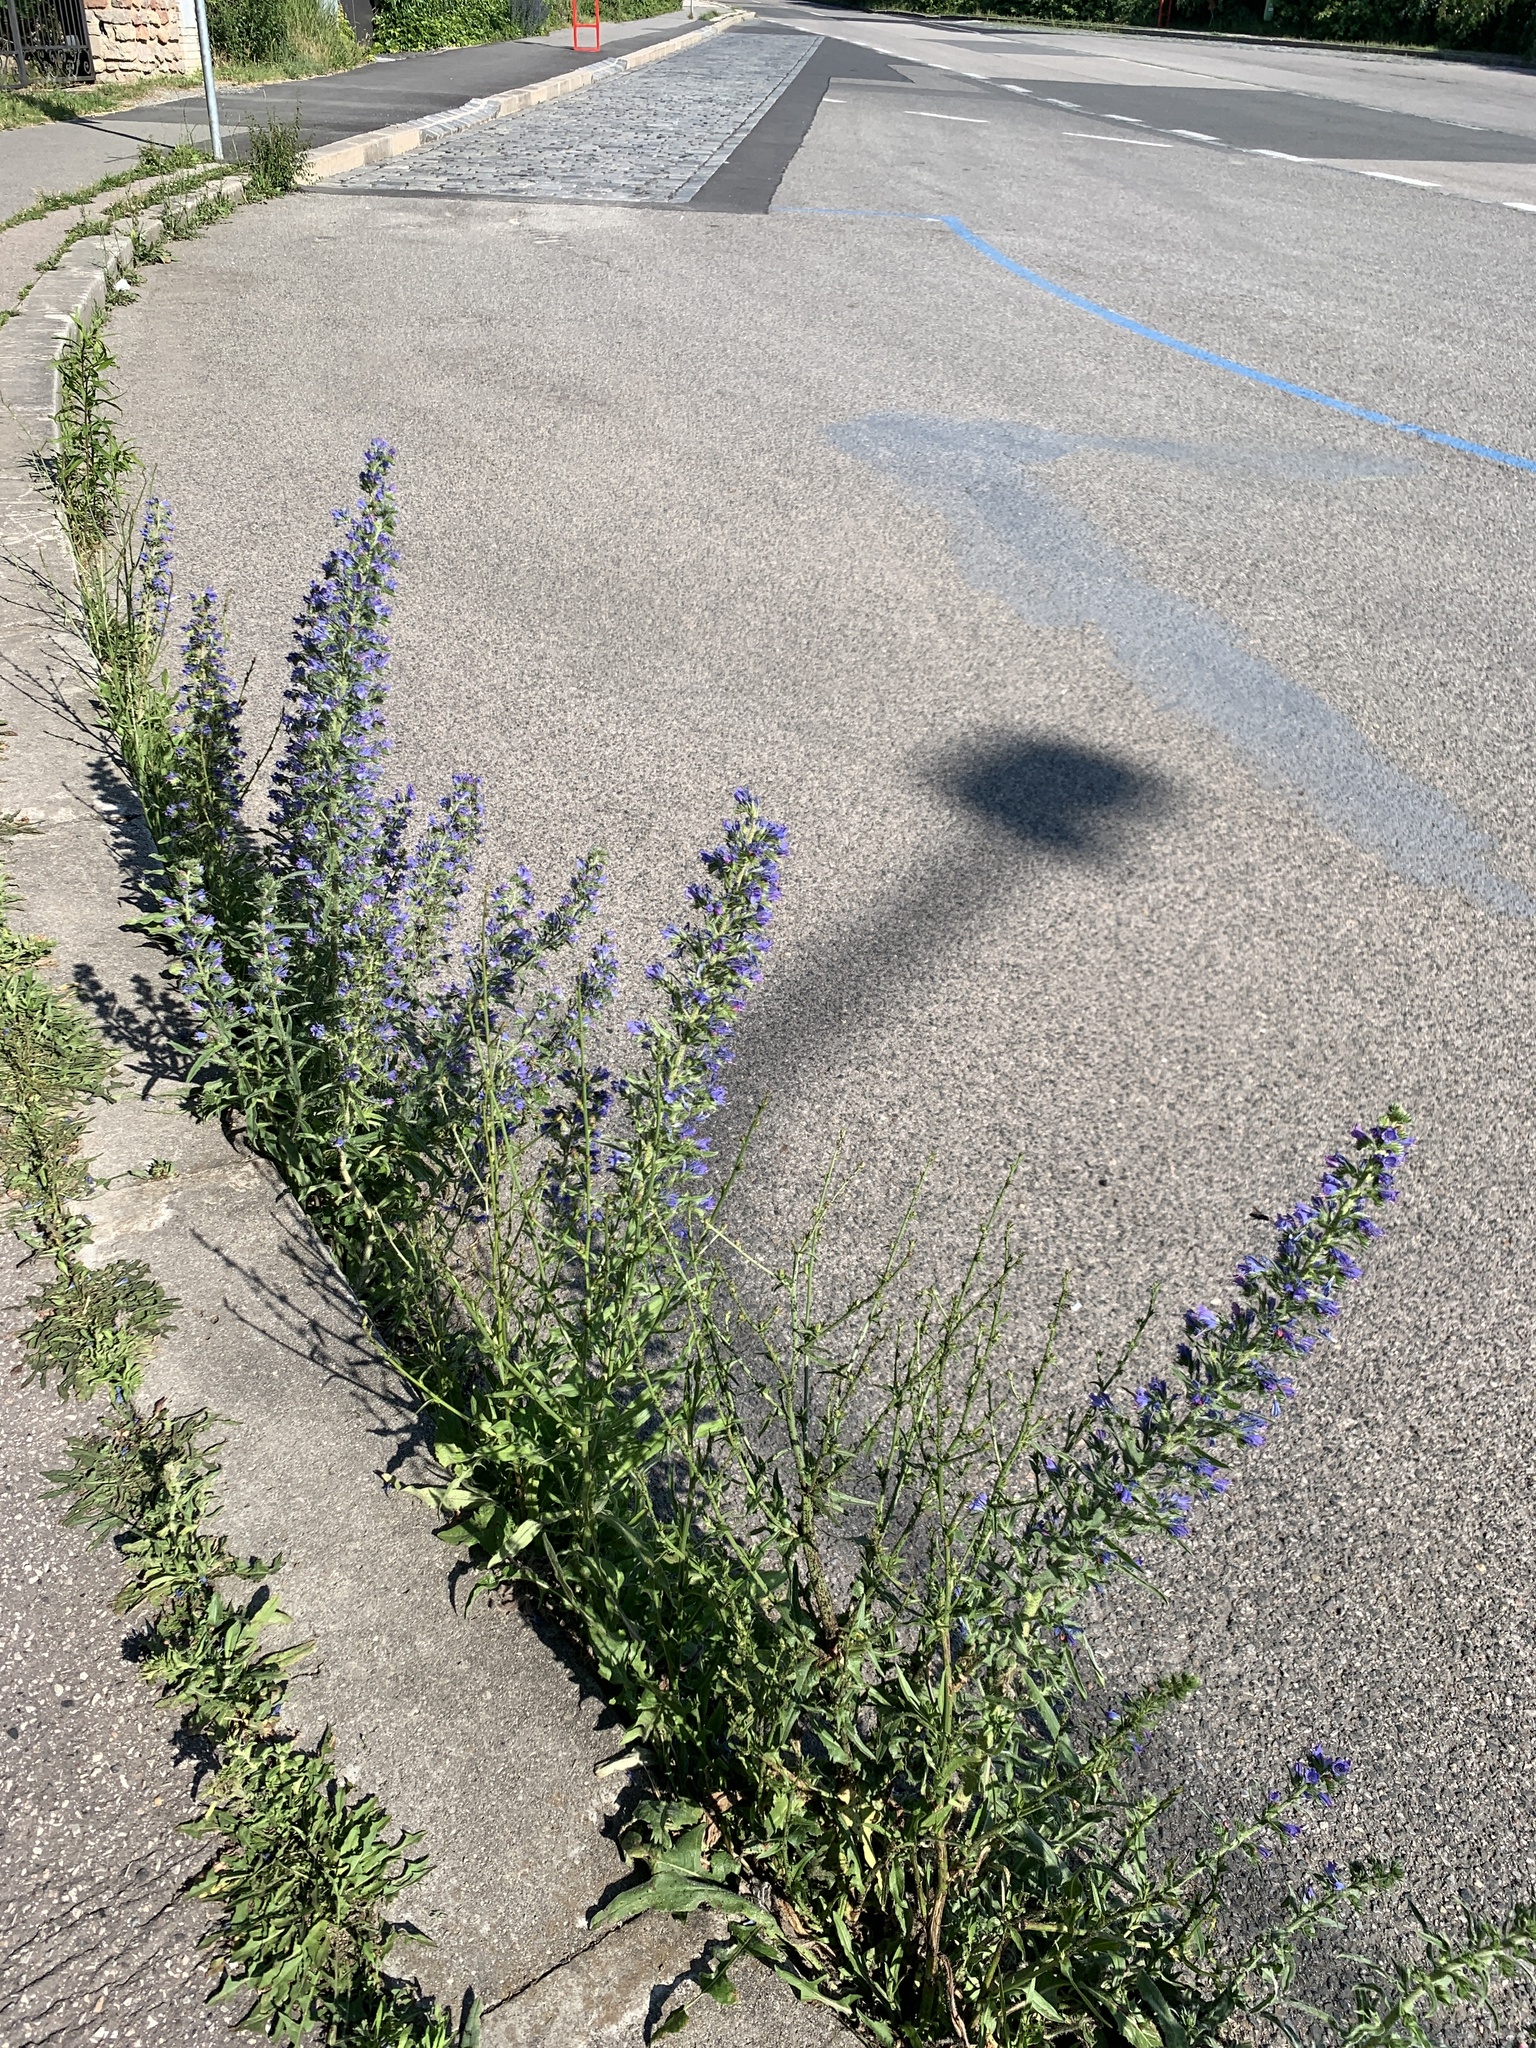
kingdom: Plantae
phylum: Tracheophyta
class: Magnoliopsida
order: Boraginales
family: Boraginaceae
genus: Echium
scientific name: Echium vulgare
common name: Common viper's bugloss
